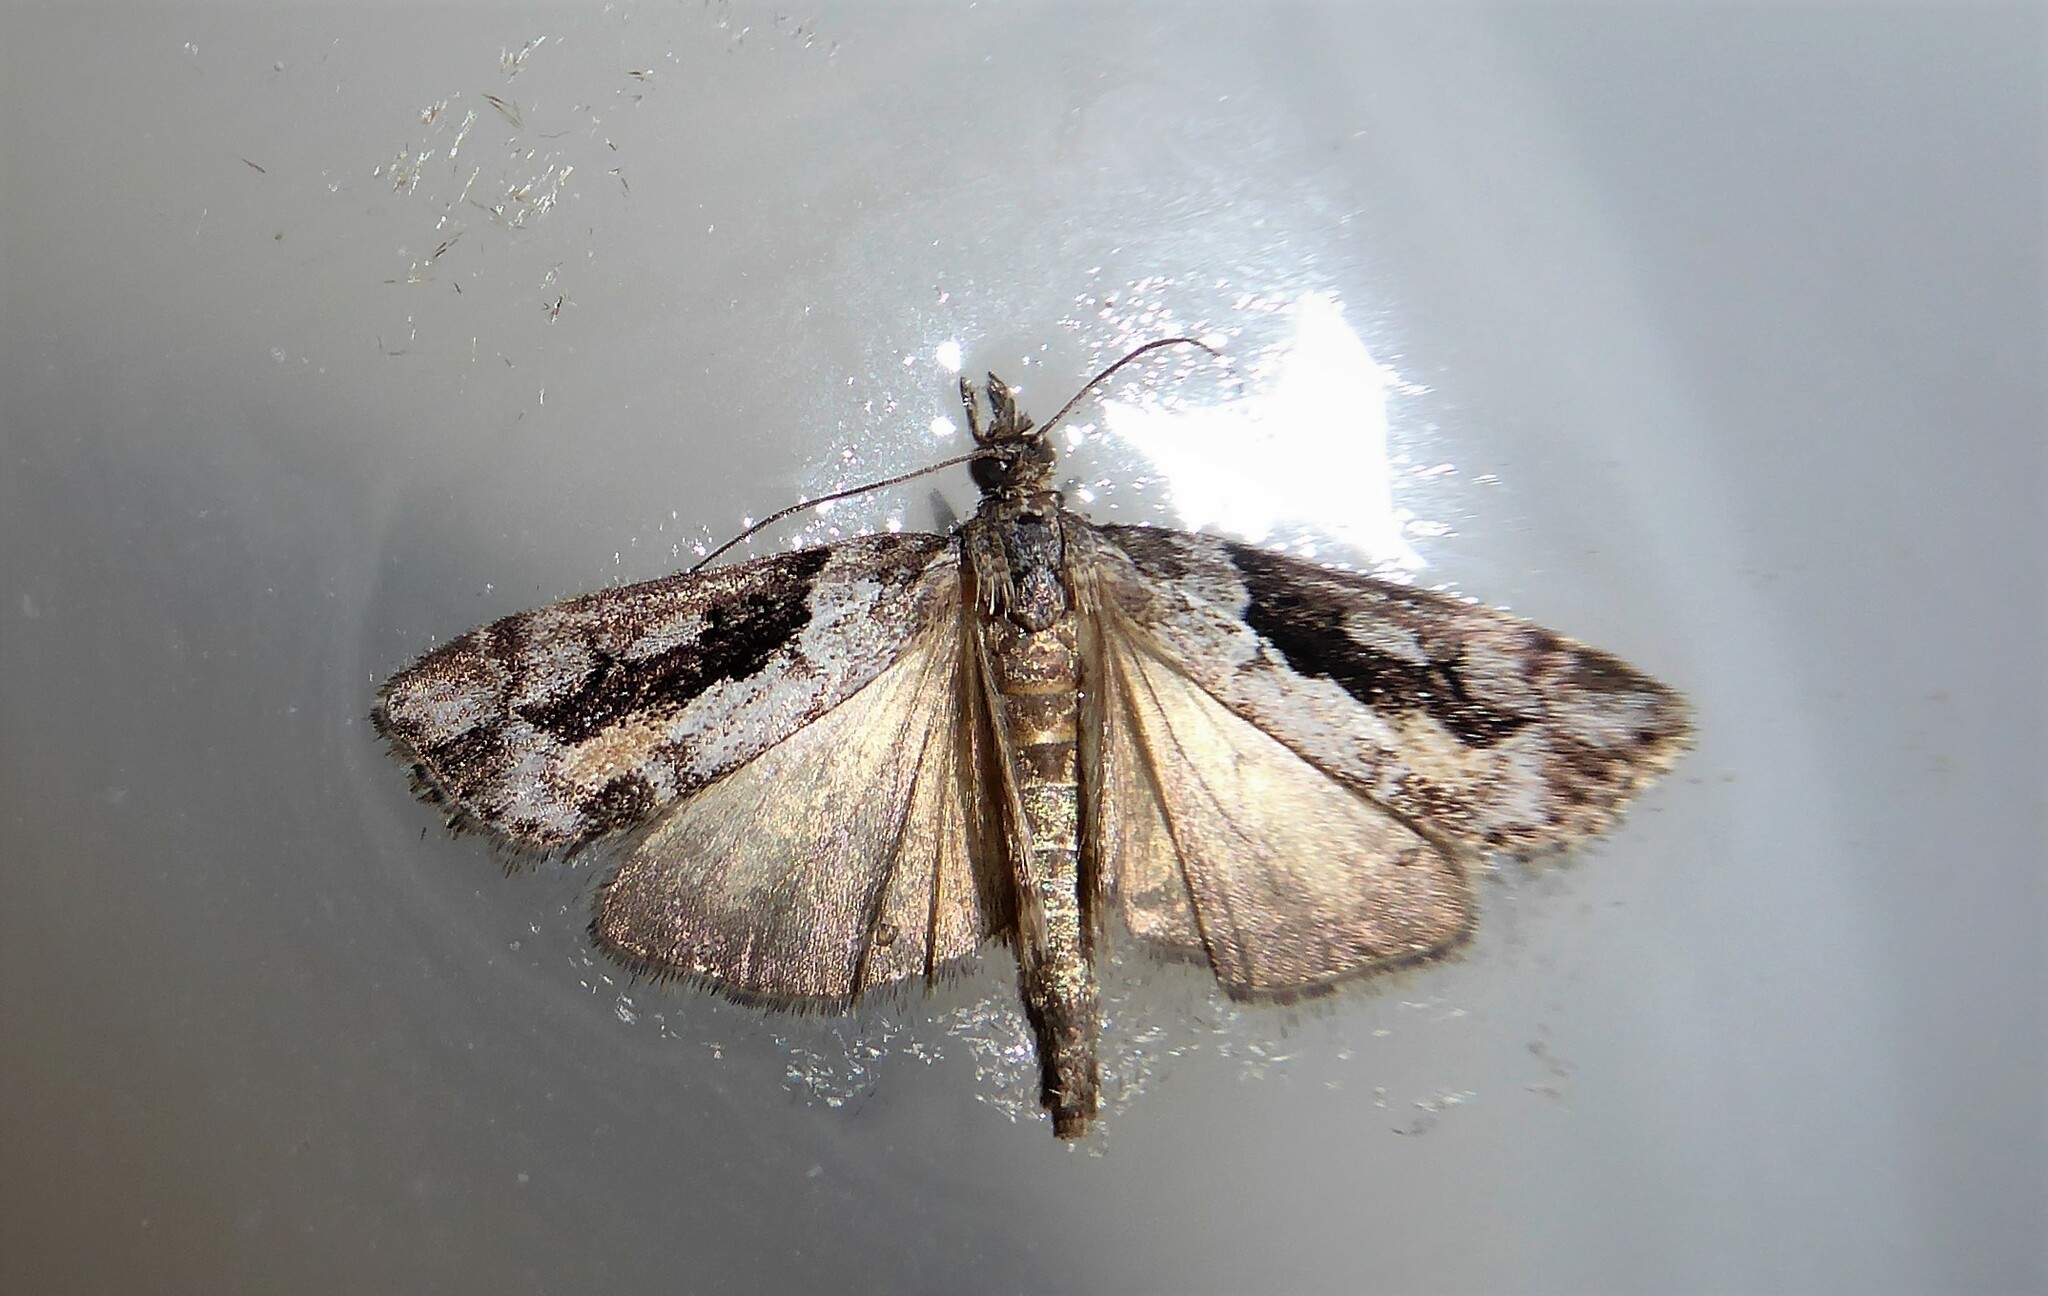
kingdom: Animalia
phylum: Arthropoda
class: Insecta
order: Lepidoptera
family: Crambidae
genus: Eudonia
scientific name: Eudonia submarginalis
